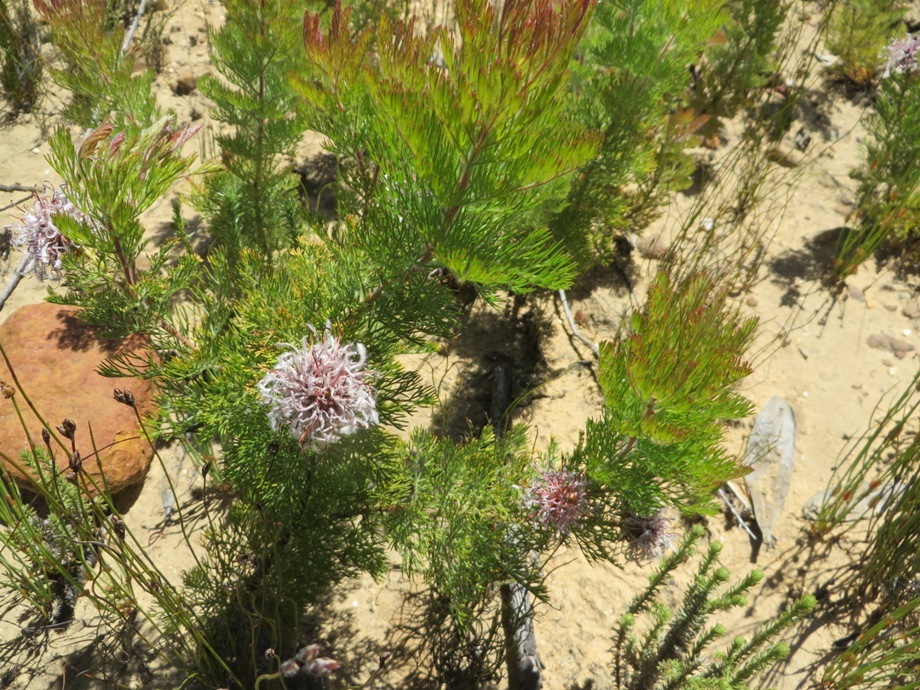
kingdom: Plantae
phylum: Tracheophyta
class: Magnoliopsida
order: Proteales
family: Proteaceae
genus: Serruria
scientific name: Serruria pedunculata
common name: Fan-leaf spiderhead
